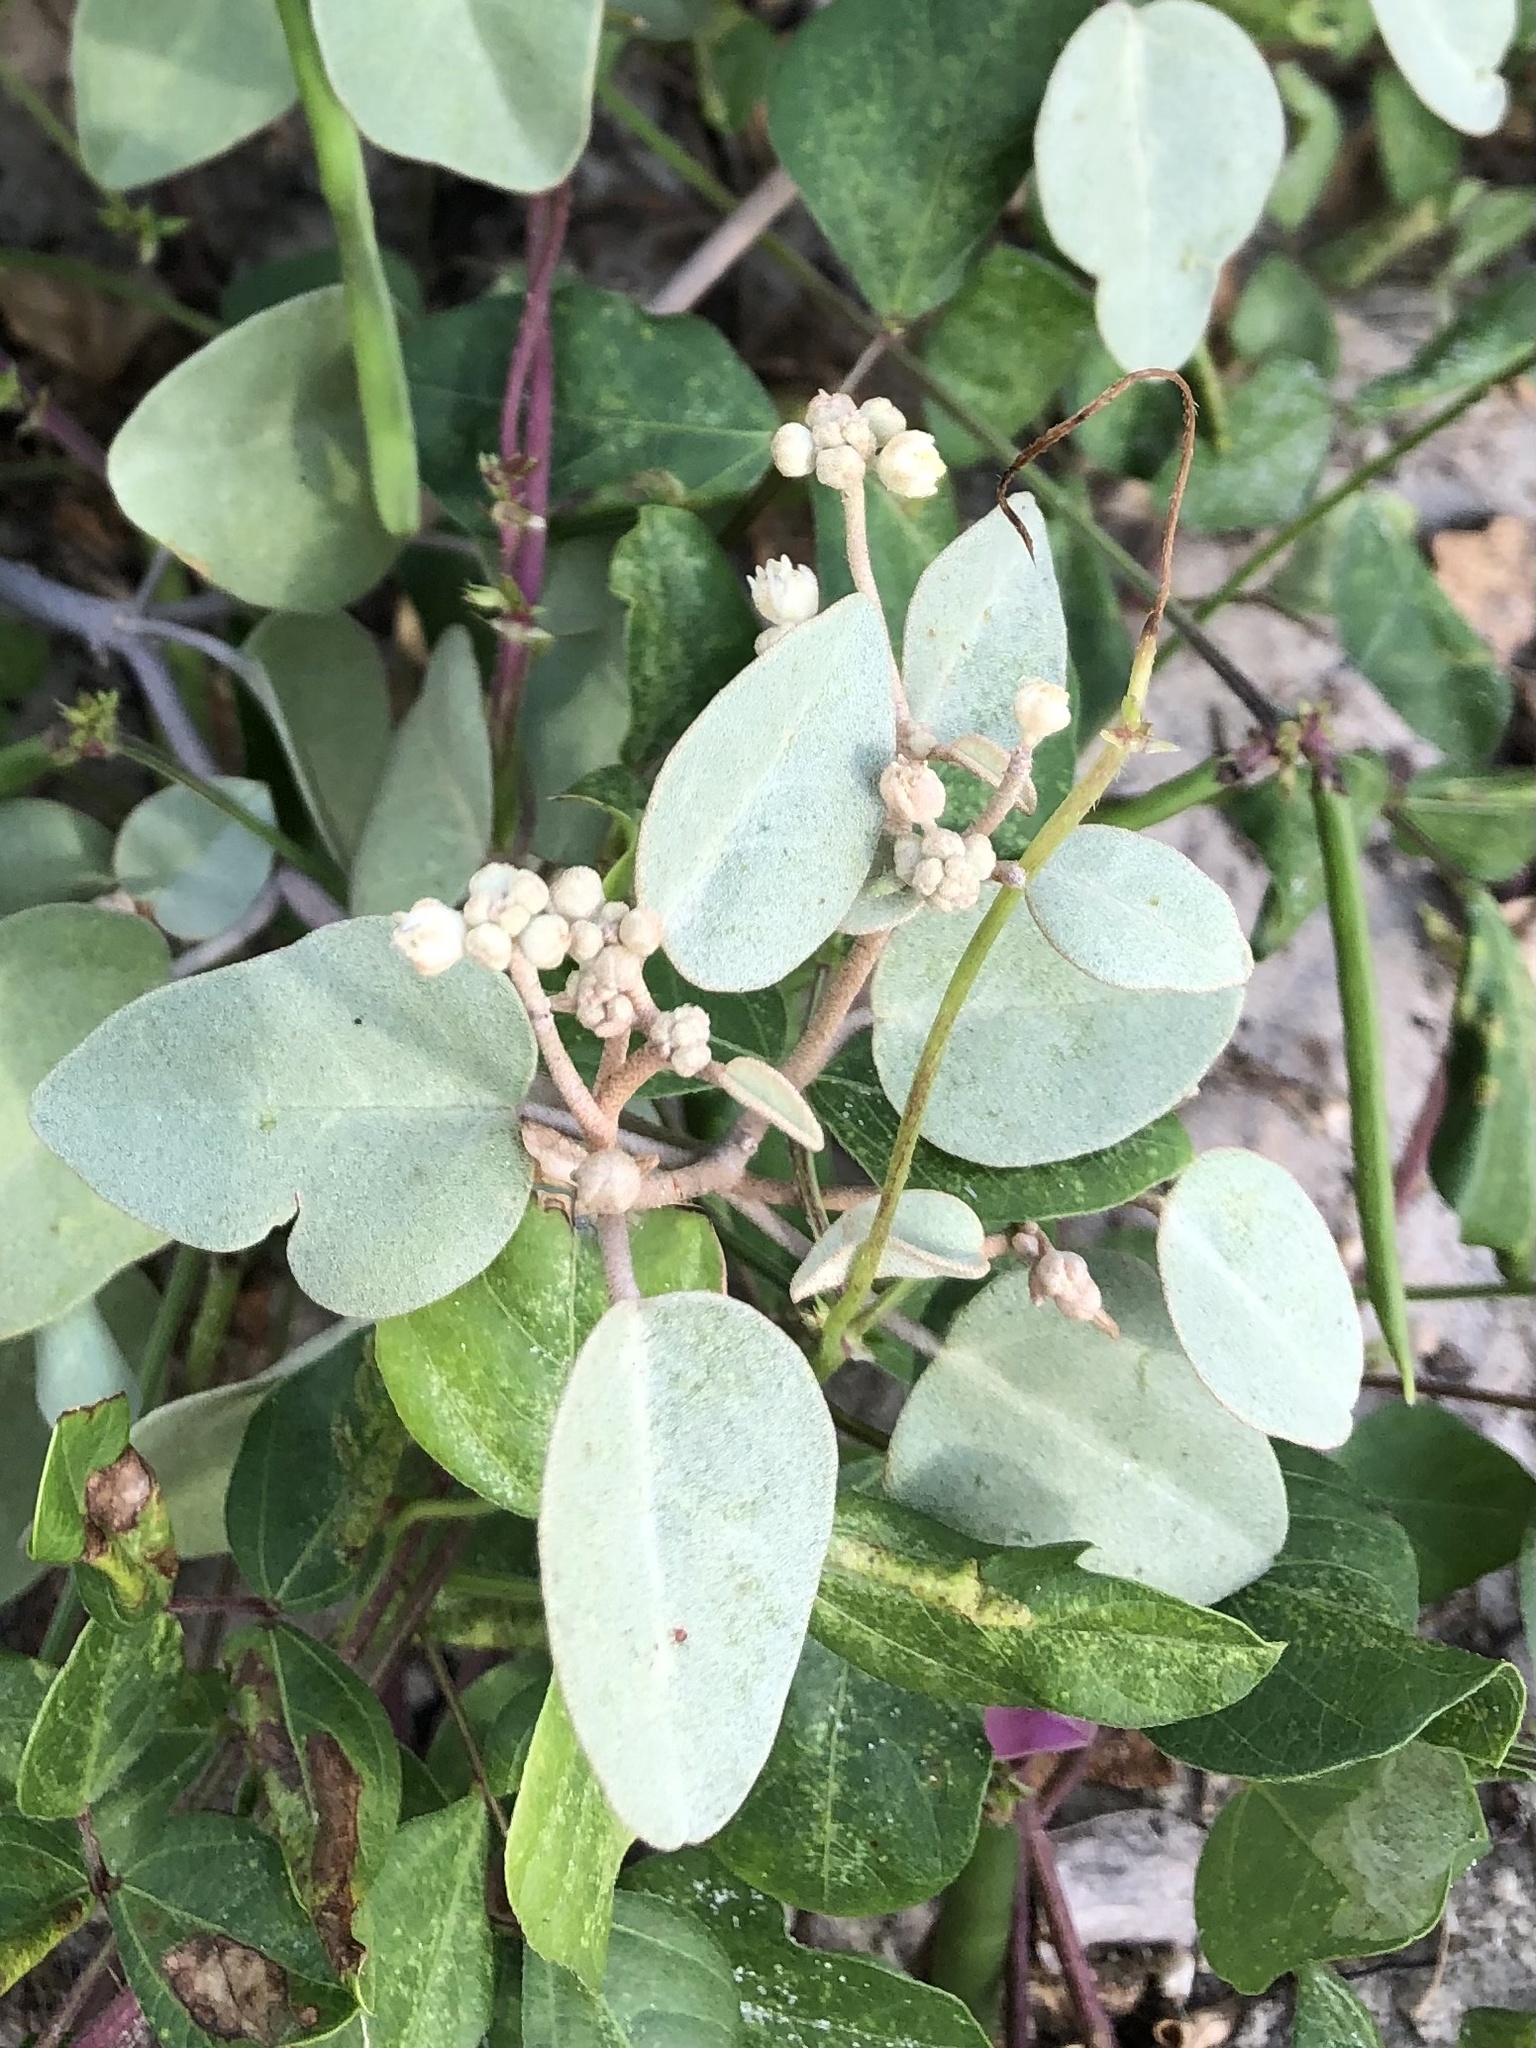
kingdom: Plantae
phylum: Tracheophyta
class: Magnoliopsida
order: Malpighiales
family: Euphorbiaceae
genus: Croton
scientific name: Croton punctatus
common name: Beach-tea
